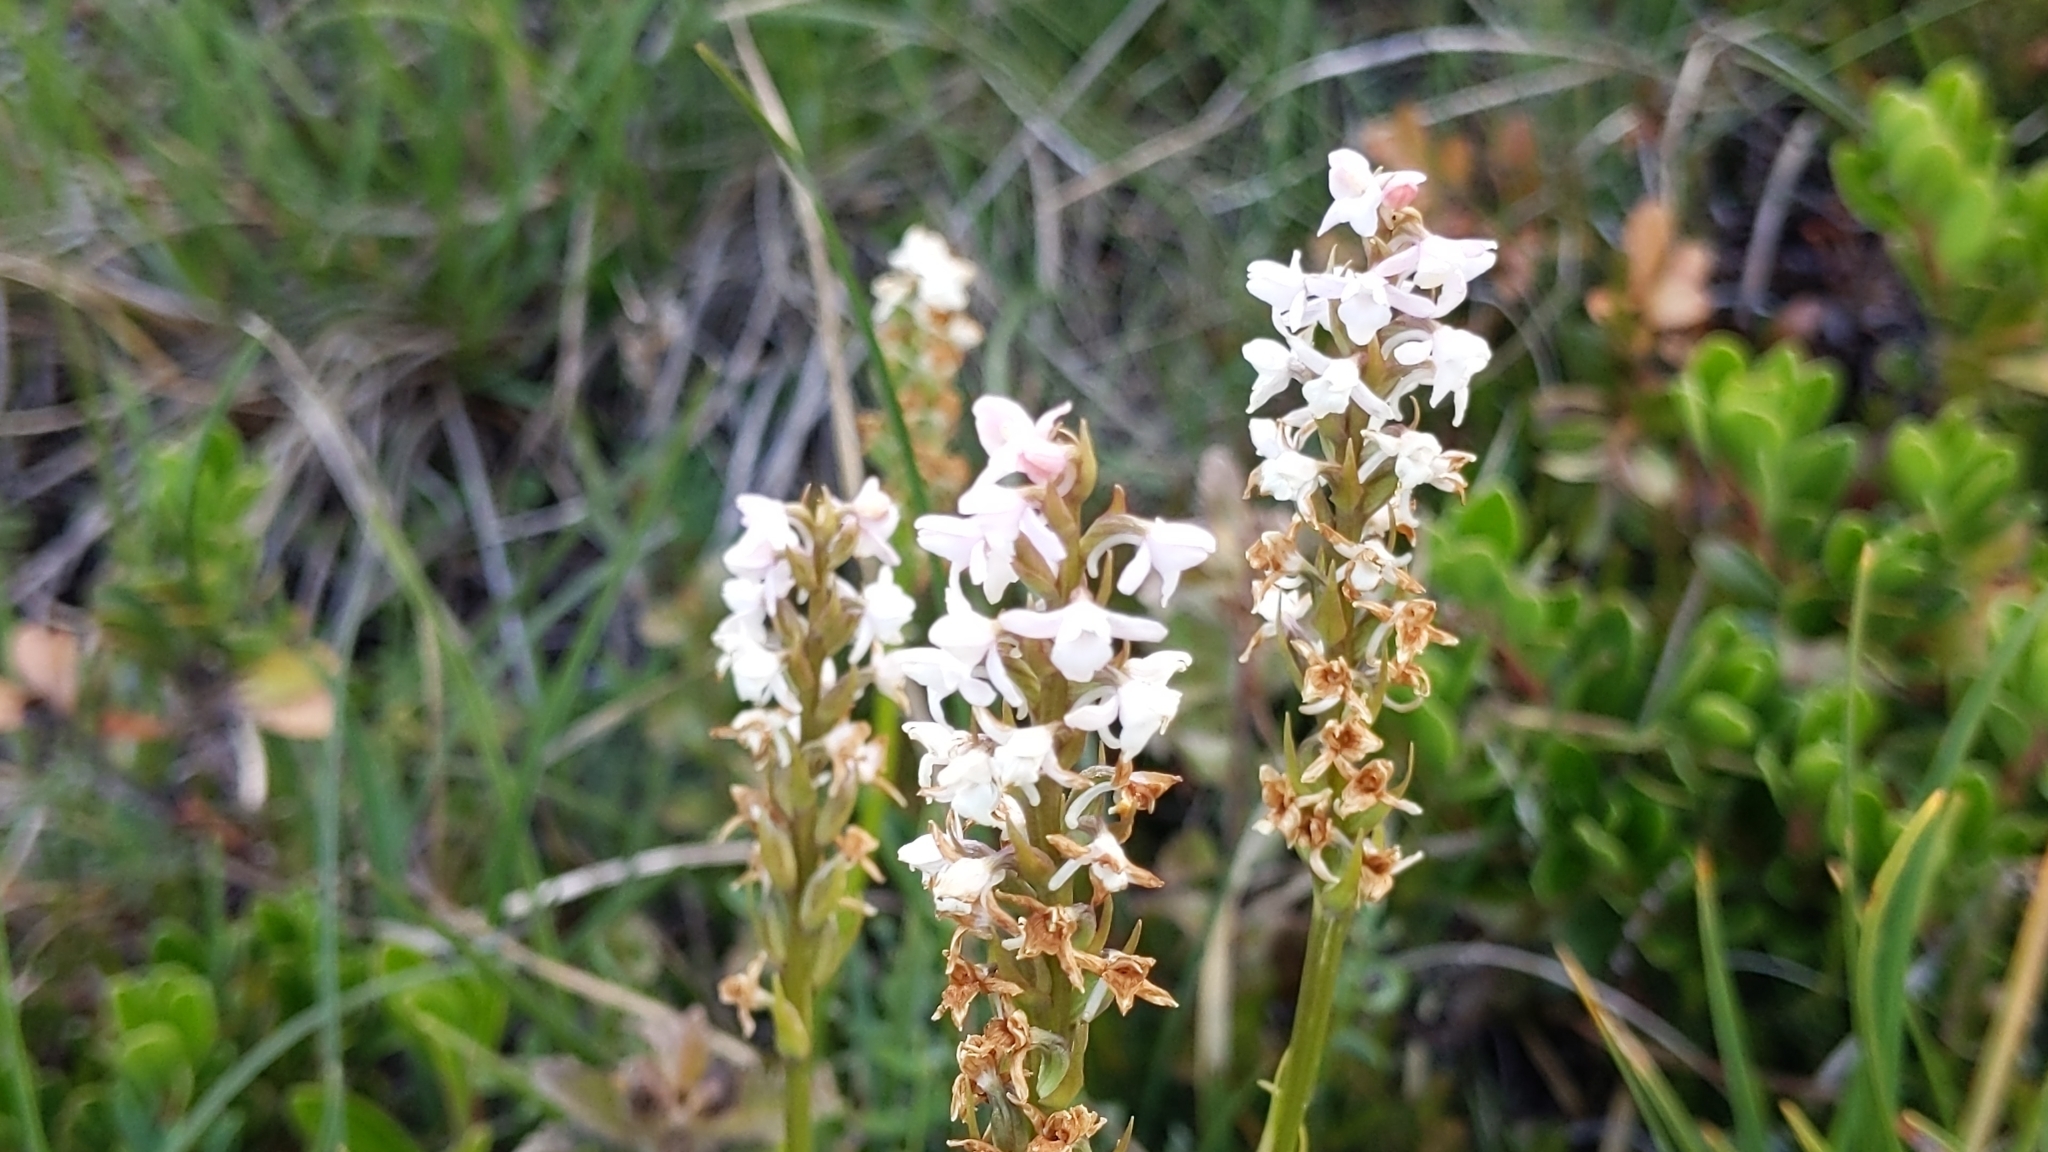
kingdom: Plantae
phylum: Tracheophyta
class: Liliopsida
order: Asparagales
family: Orchidaceae
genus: Gymnadenia
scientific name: Gymnadenia odoratissima
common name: Scented gymnadenia
